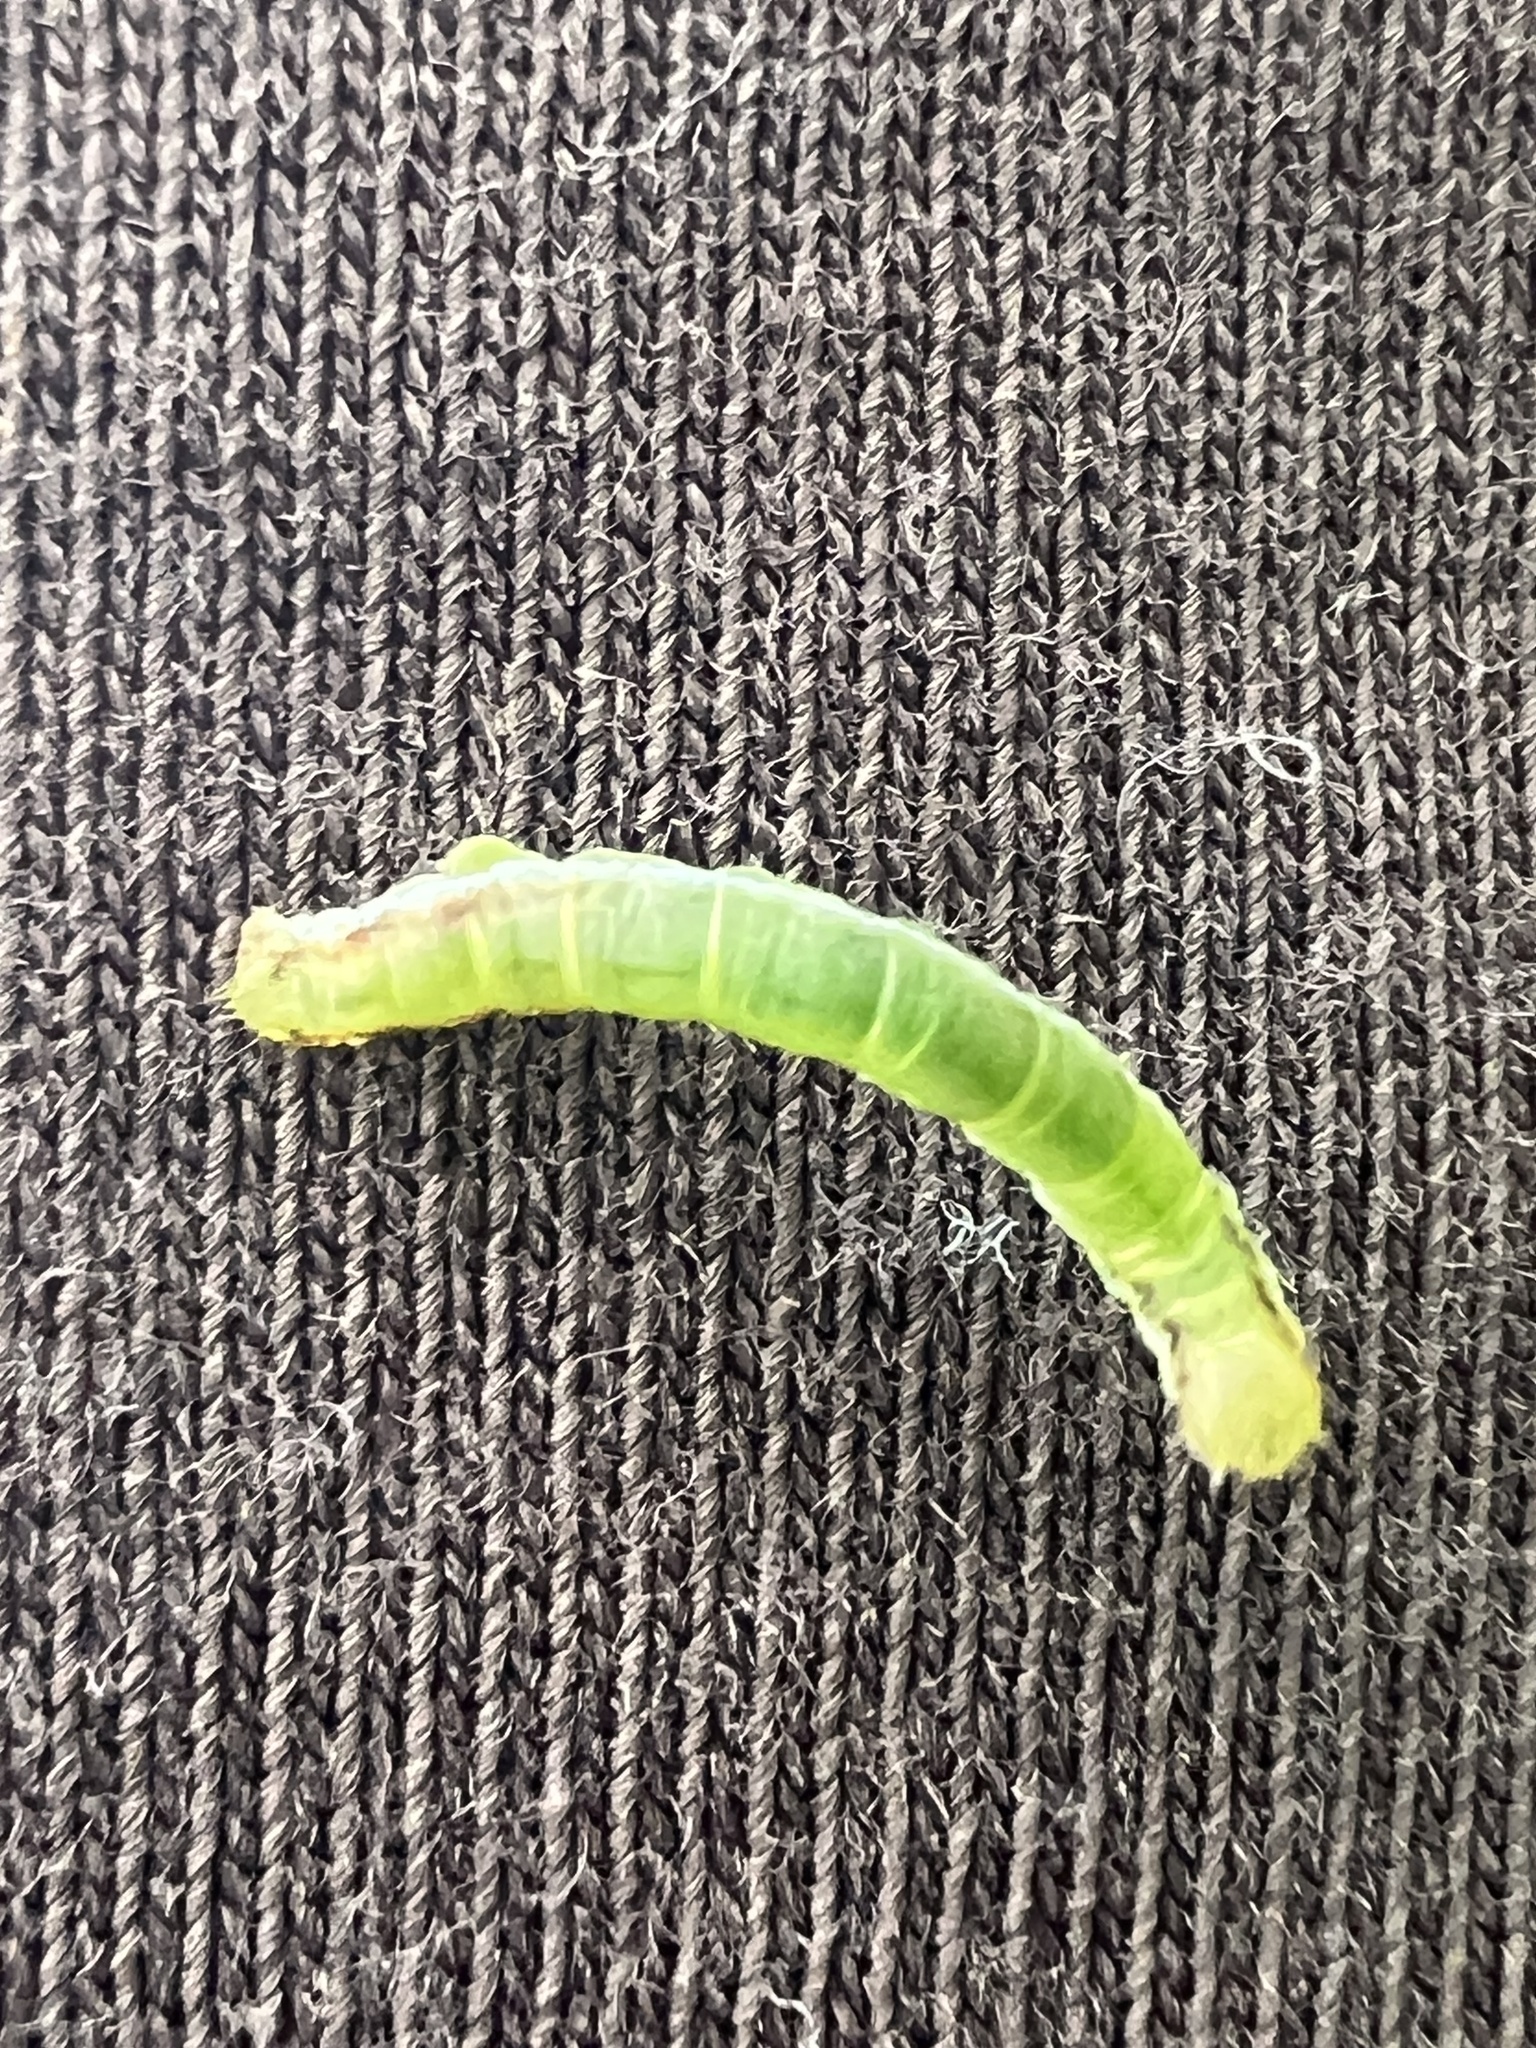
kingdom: Animalia
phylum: Arthropoda
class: Insecta
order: Lepidoptera
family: Geometridae
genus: Cleora
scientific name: Cleora scriptaria
